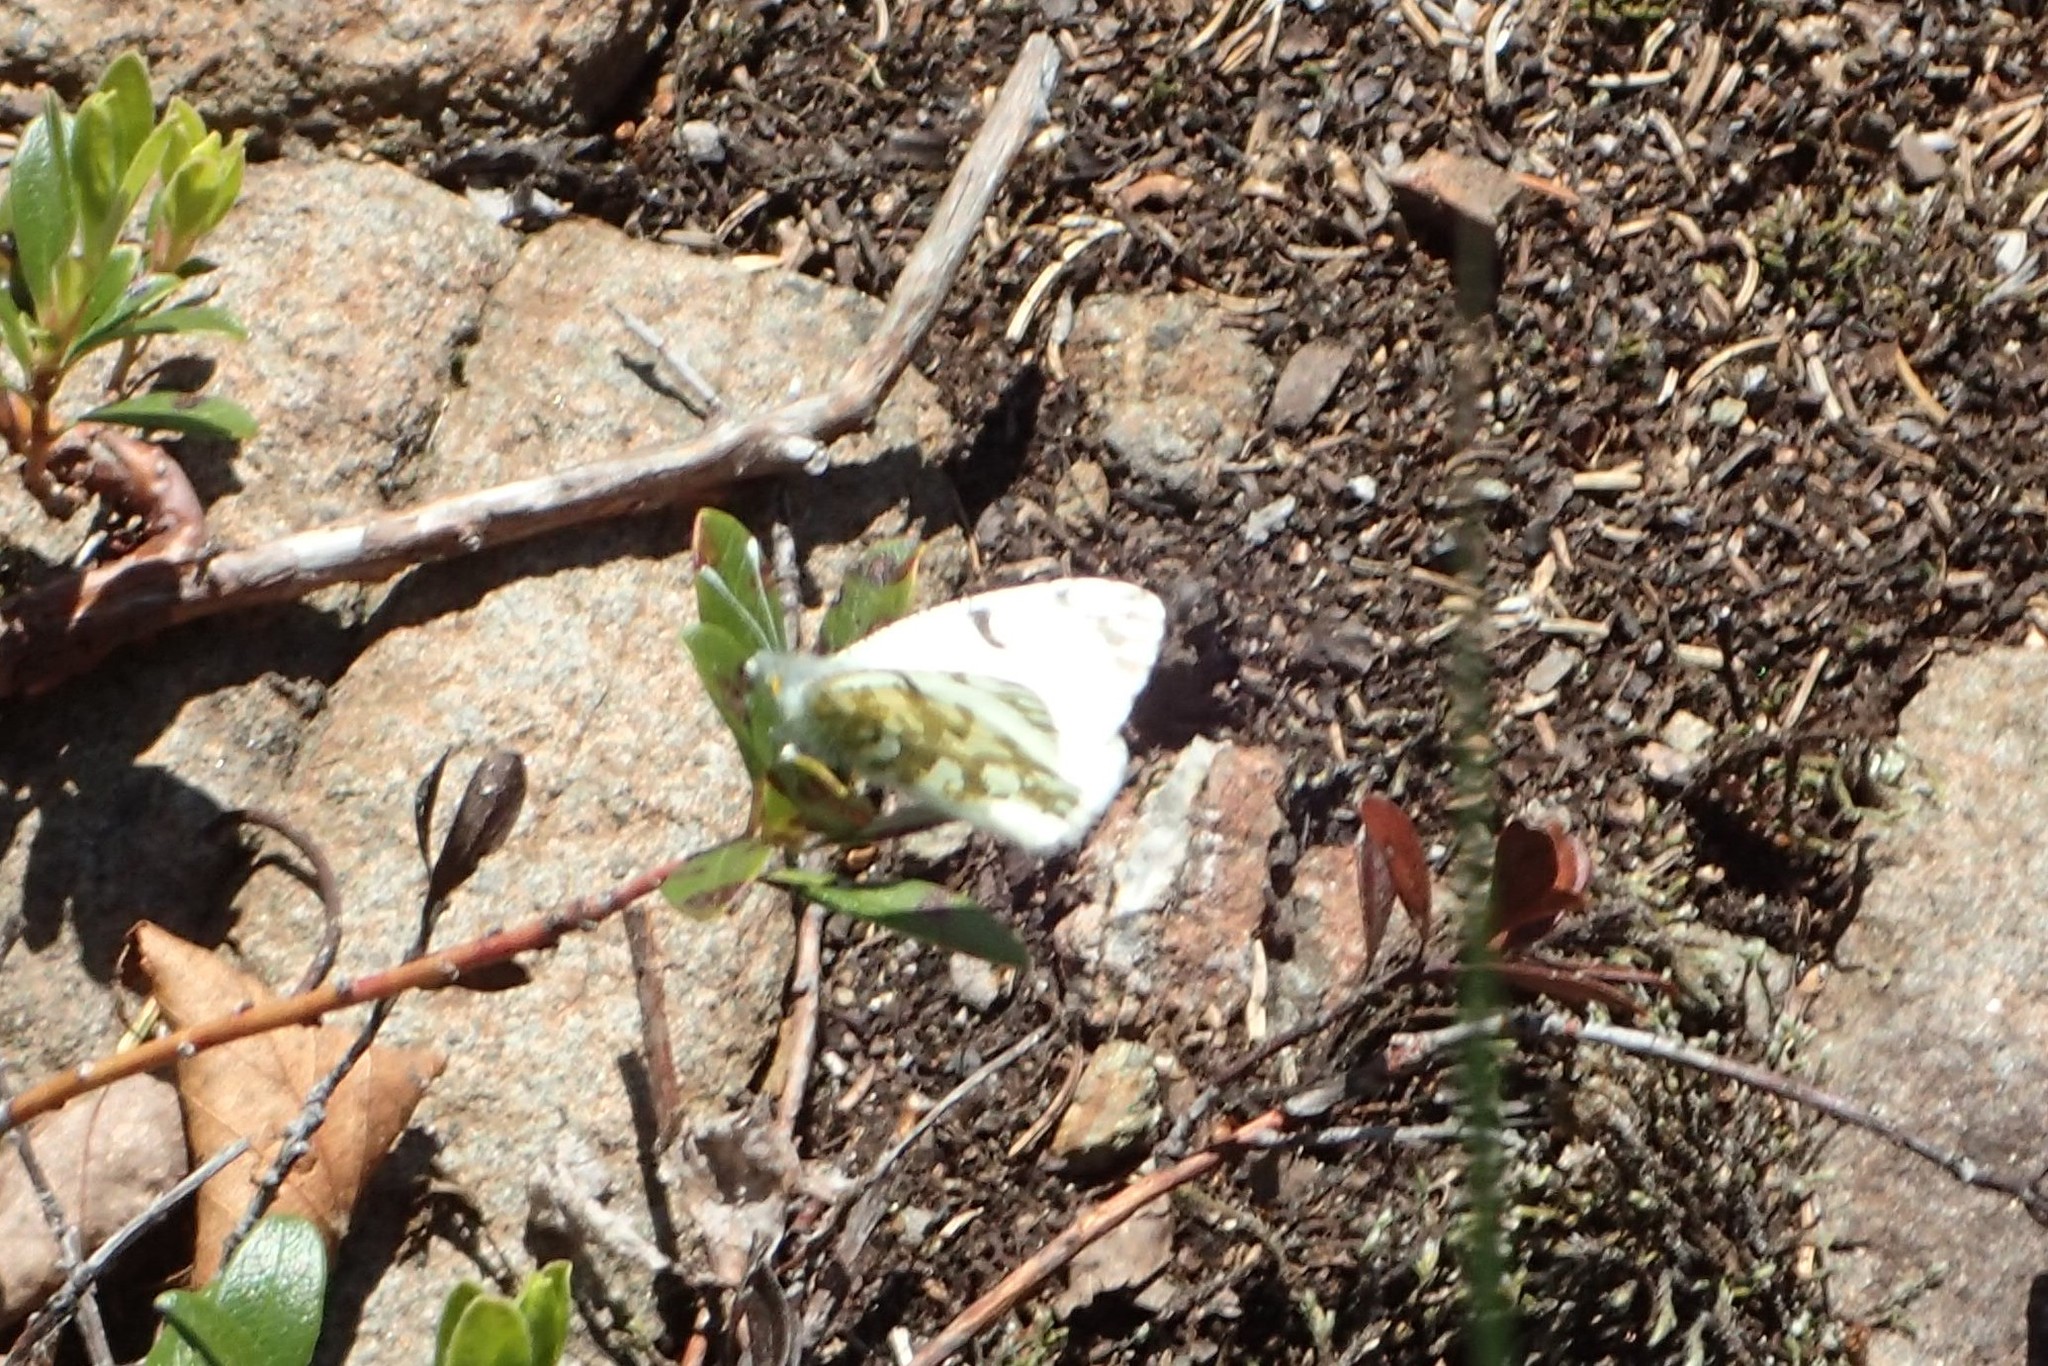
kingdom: Animalia
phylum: Arthropoda
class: Insecta
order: Lepidoptera
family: Pieridae
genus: Euchloe
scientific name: Euchloe ausonides
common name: Creamy marblewing
